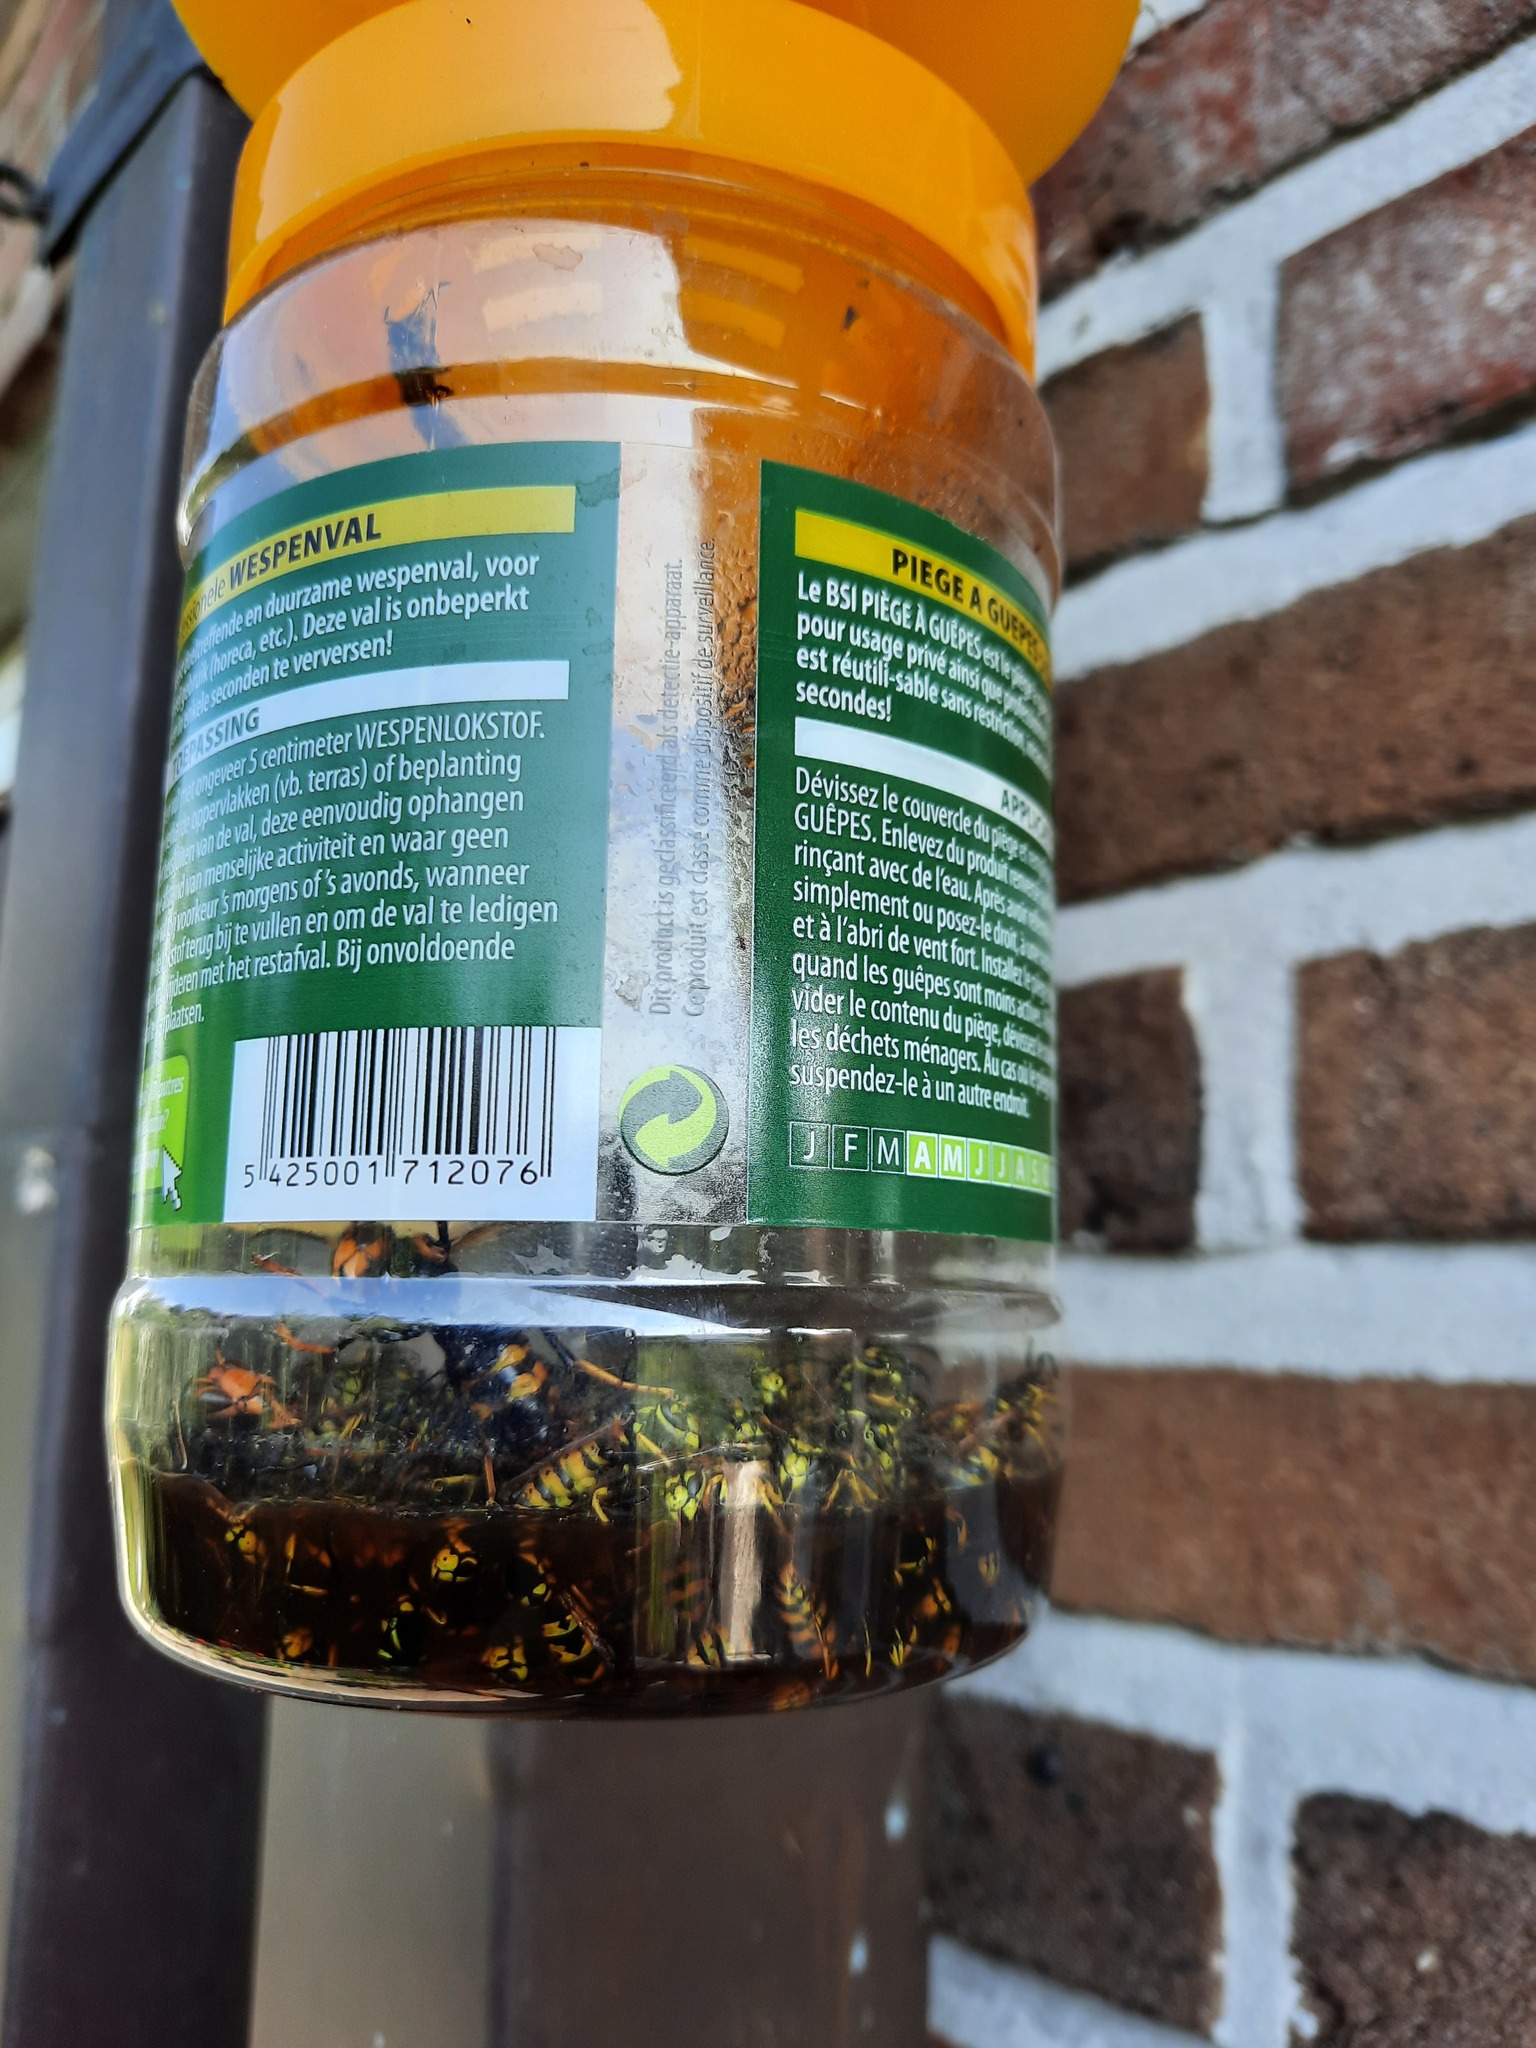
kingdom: Animalia
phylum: Arthropoda
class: Insecta
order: Hymenoptera
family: Vespidae
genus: Vespa
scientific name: Vespa velutina
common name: Asian hornet
